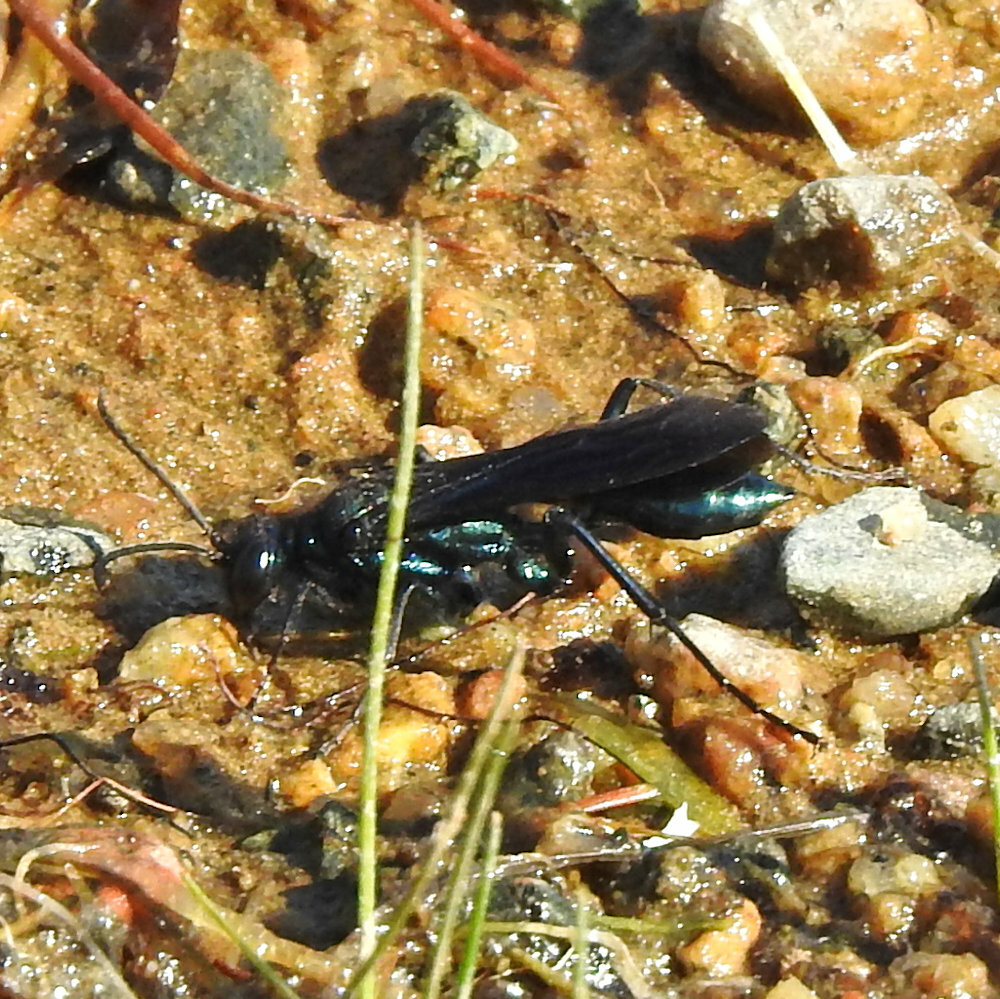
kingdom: Animalia
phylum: Arthropoda
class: Insecta
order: Hymenoptera
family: Sphecidae
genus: Chalybion
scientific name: Chalybion californicum
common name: Mud dauber
